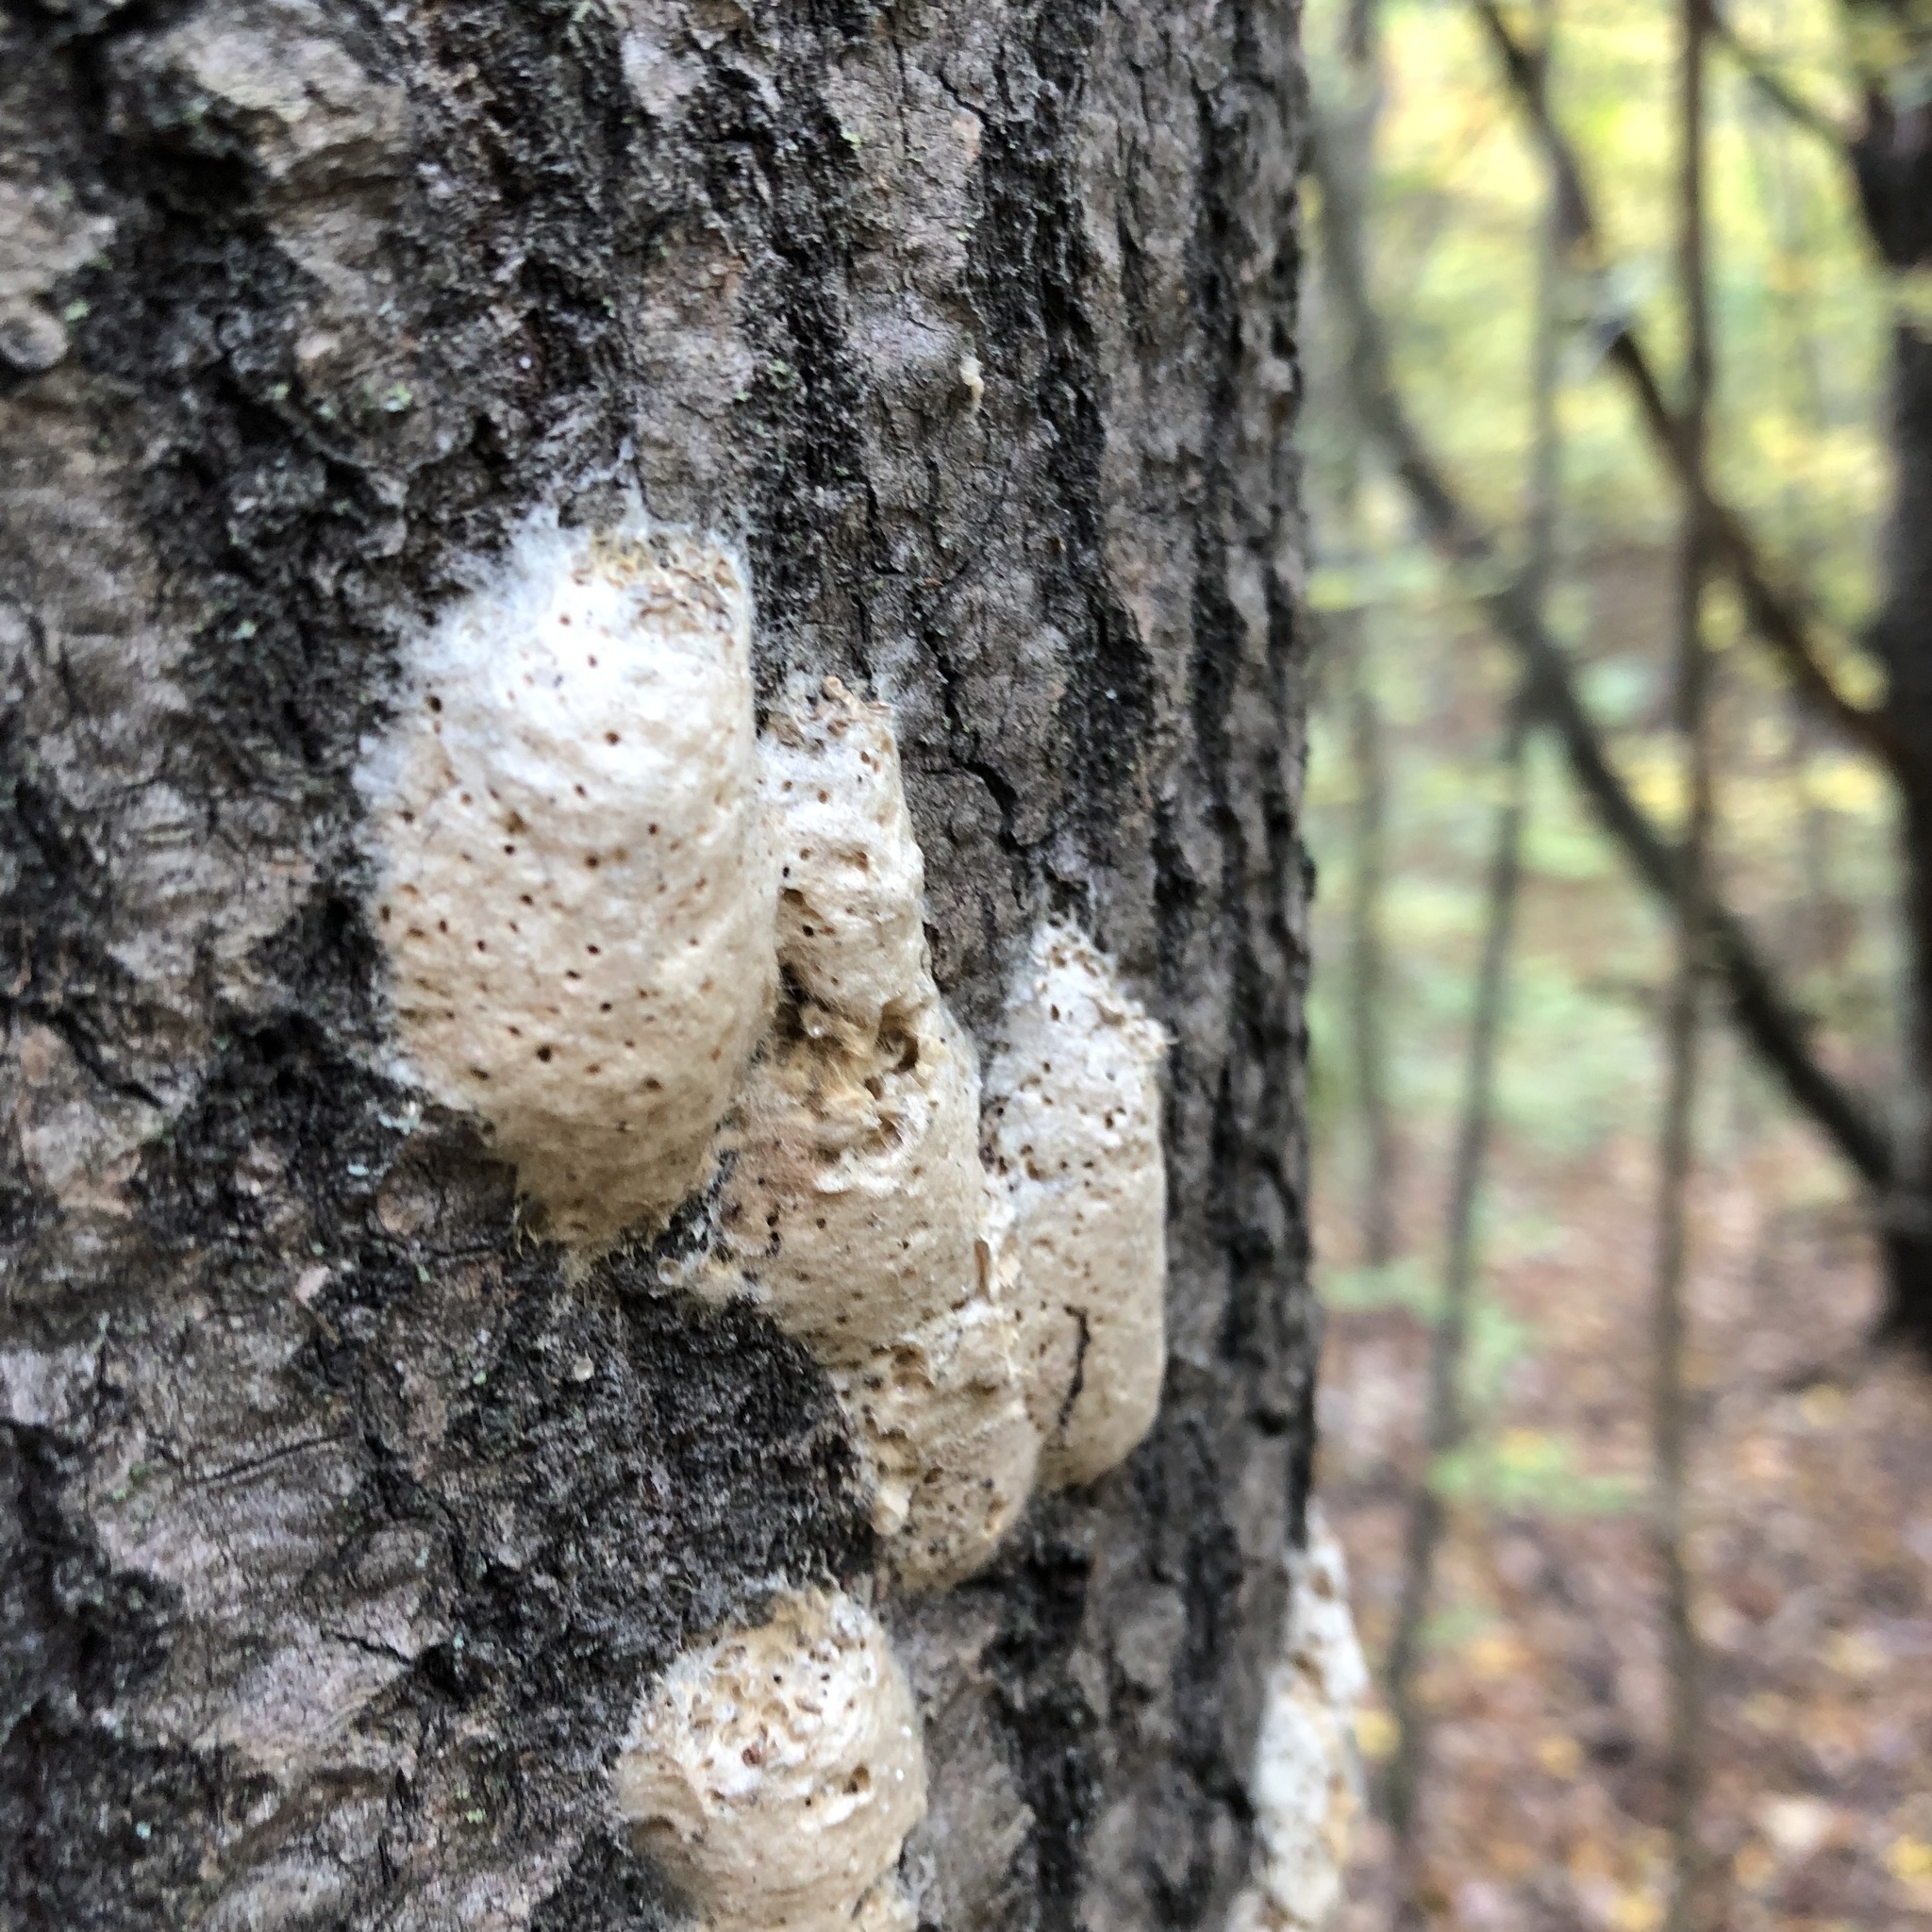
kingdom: Animalia
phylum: Arthropoda
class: Insecta
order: Lepidoptera
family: Erebidae
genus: Lymantria
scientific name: Lymantria dispar
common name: Gypsy moth
